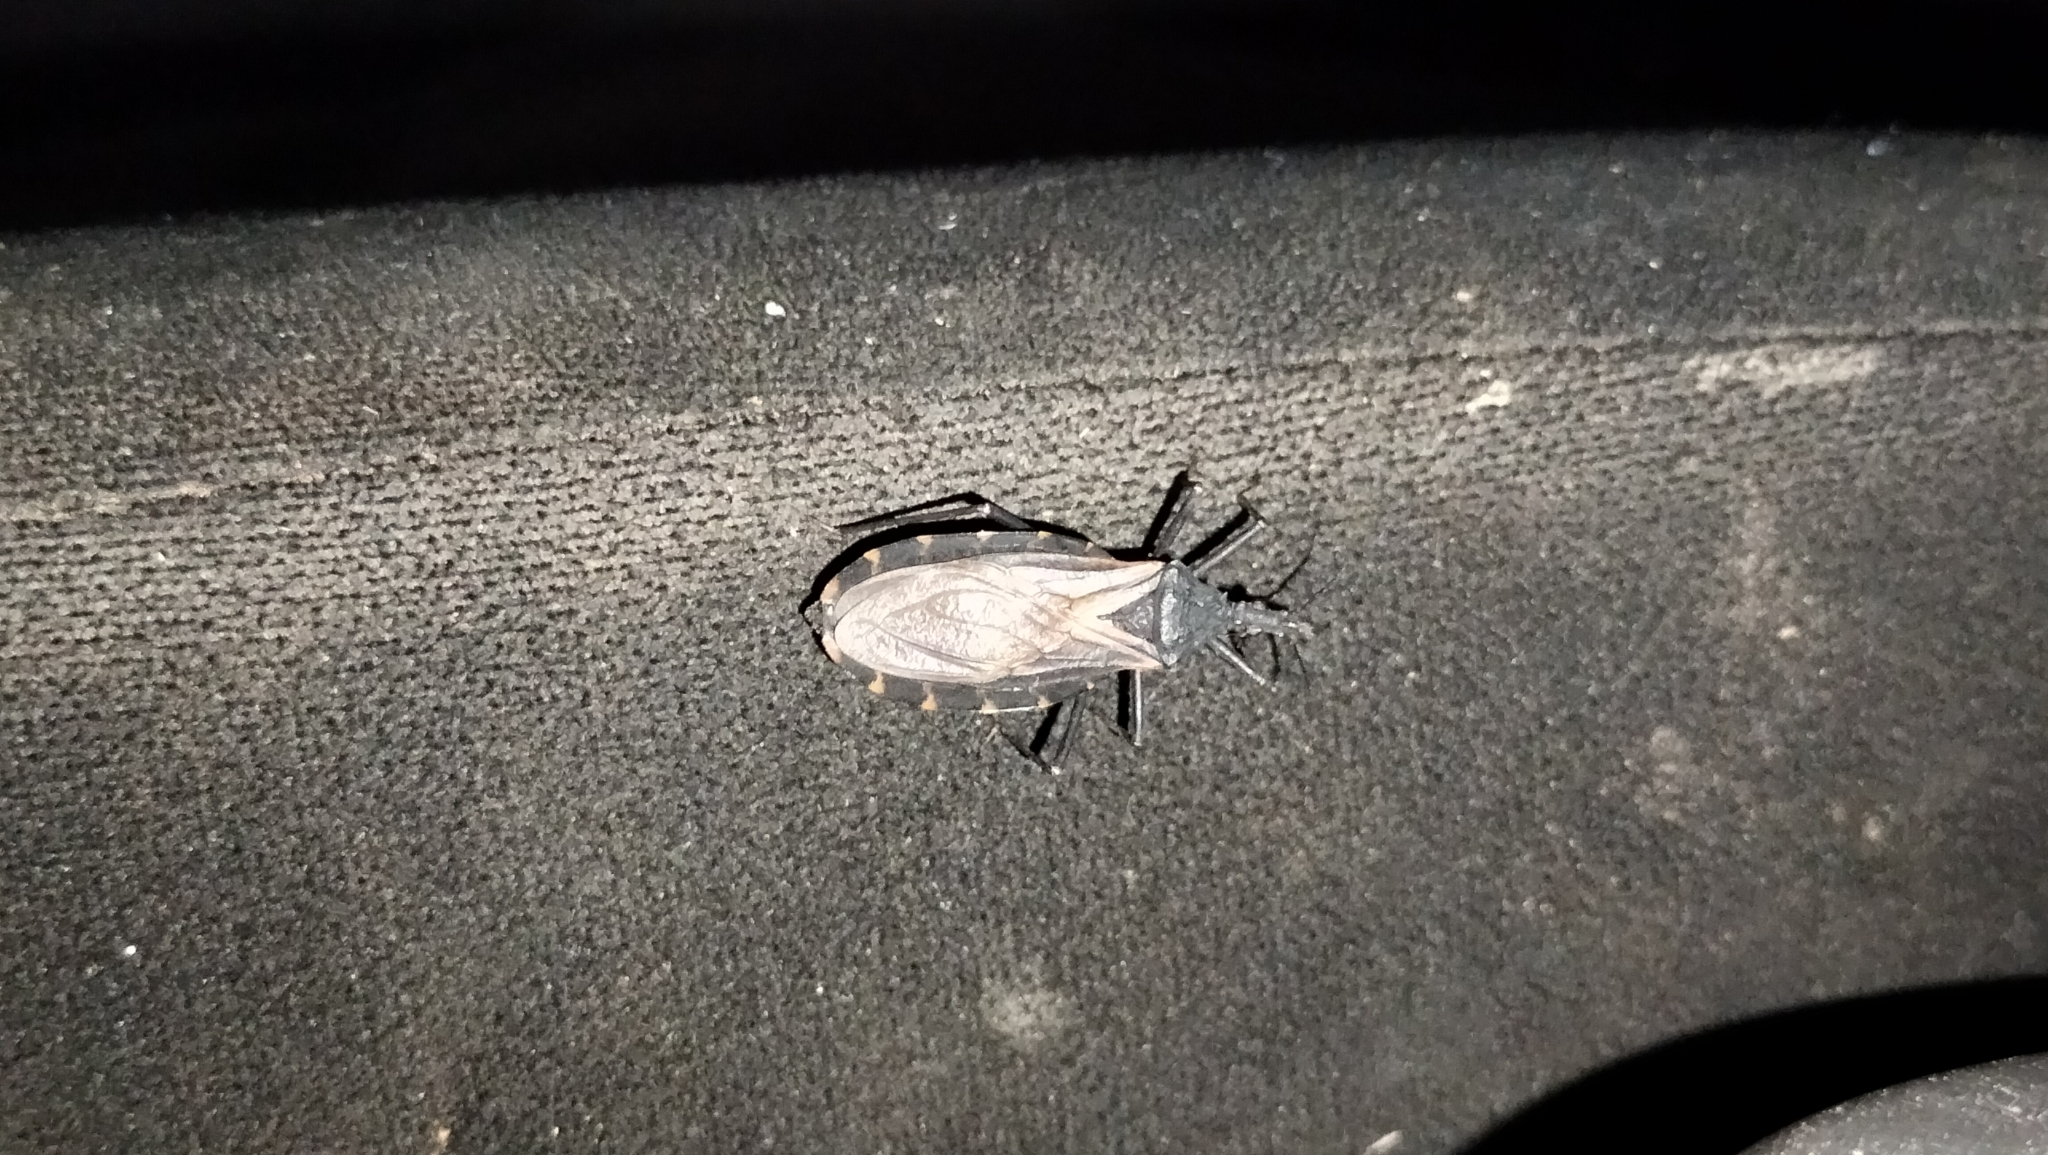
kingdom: Animalia
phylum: Arthropoda
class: Insecta
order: Hemiptera
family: Reduviidae
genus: Triatoma
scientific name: Triatoma gerstaeckeri
